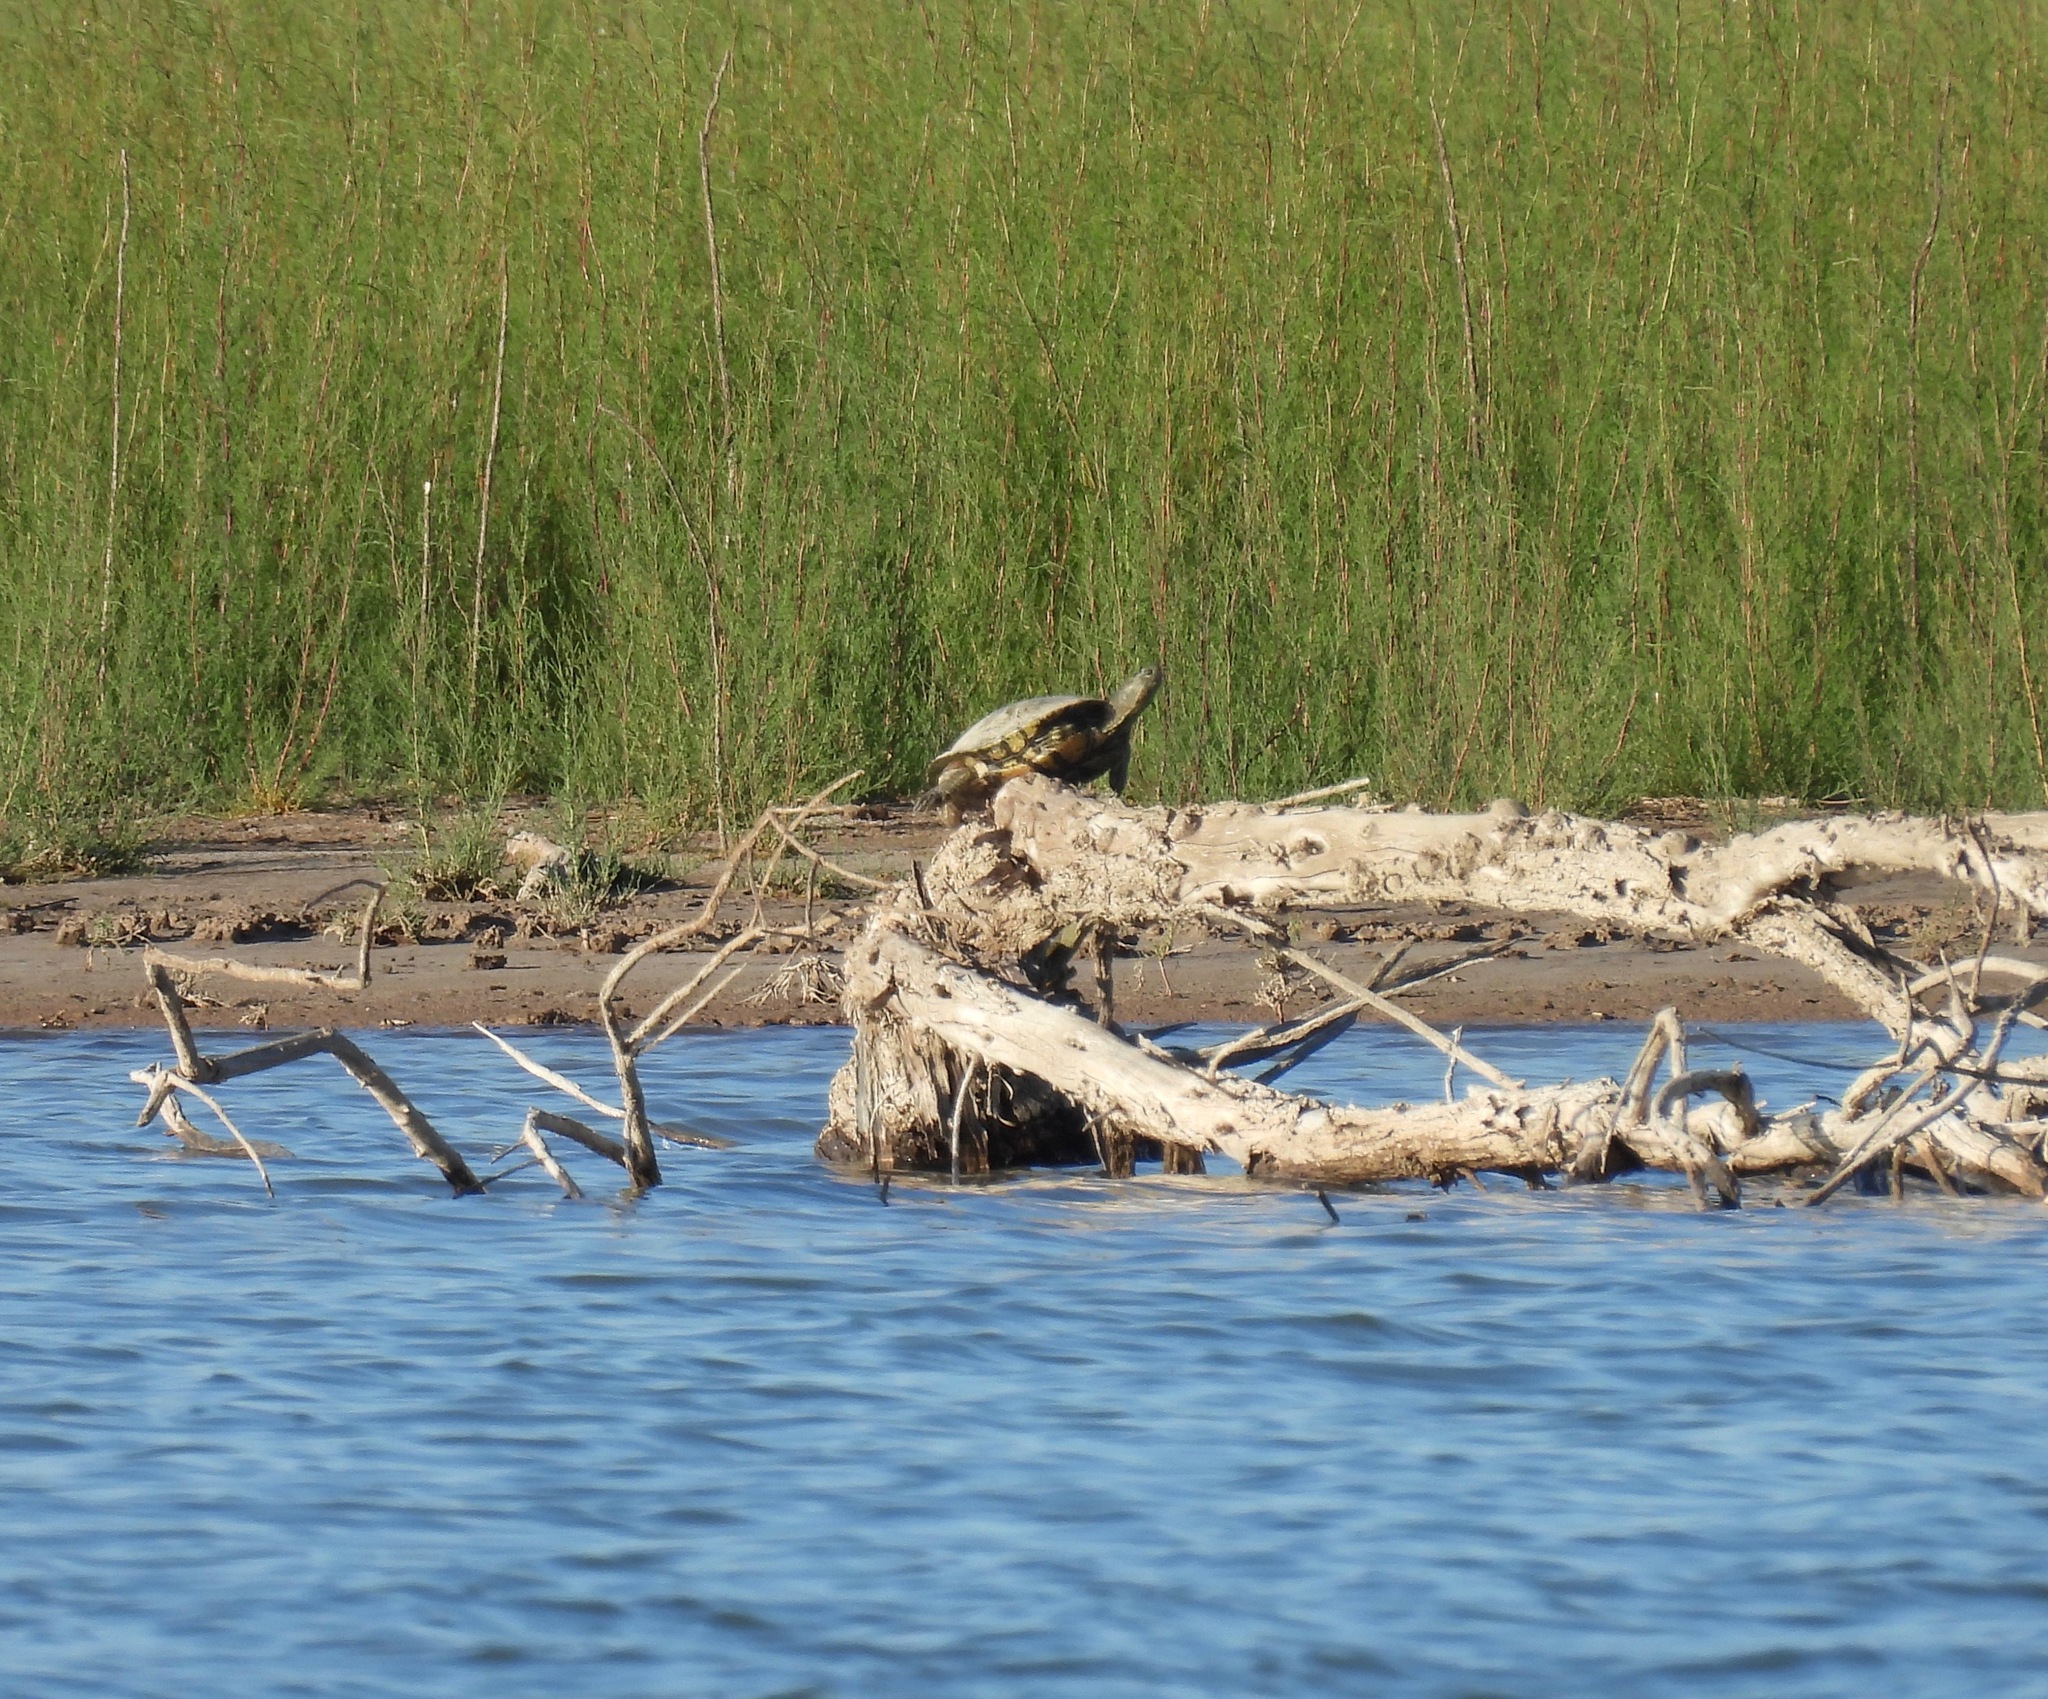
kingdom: Animalia
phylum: Chordata
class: Testudines
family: Emydidae
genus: Trachemys
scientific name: Trachemys scripta
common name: Slider
